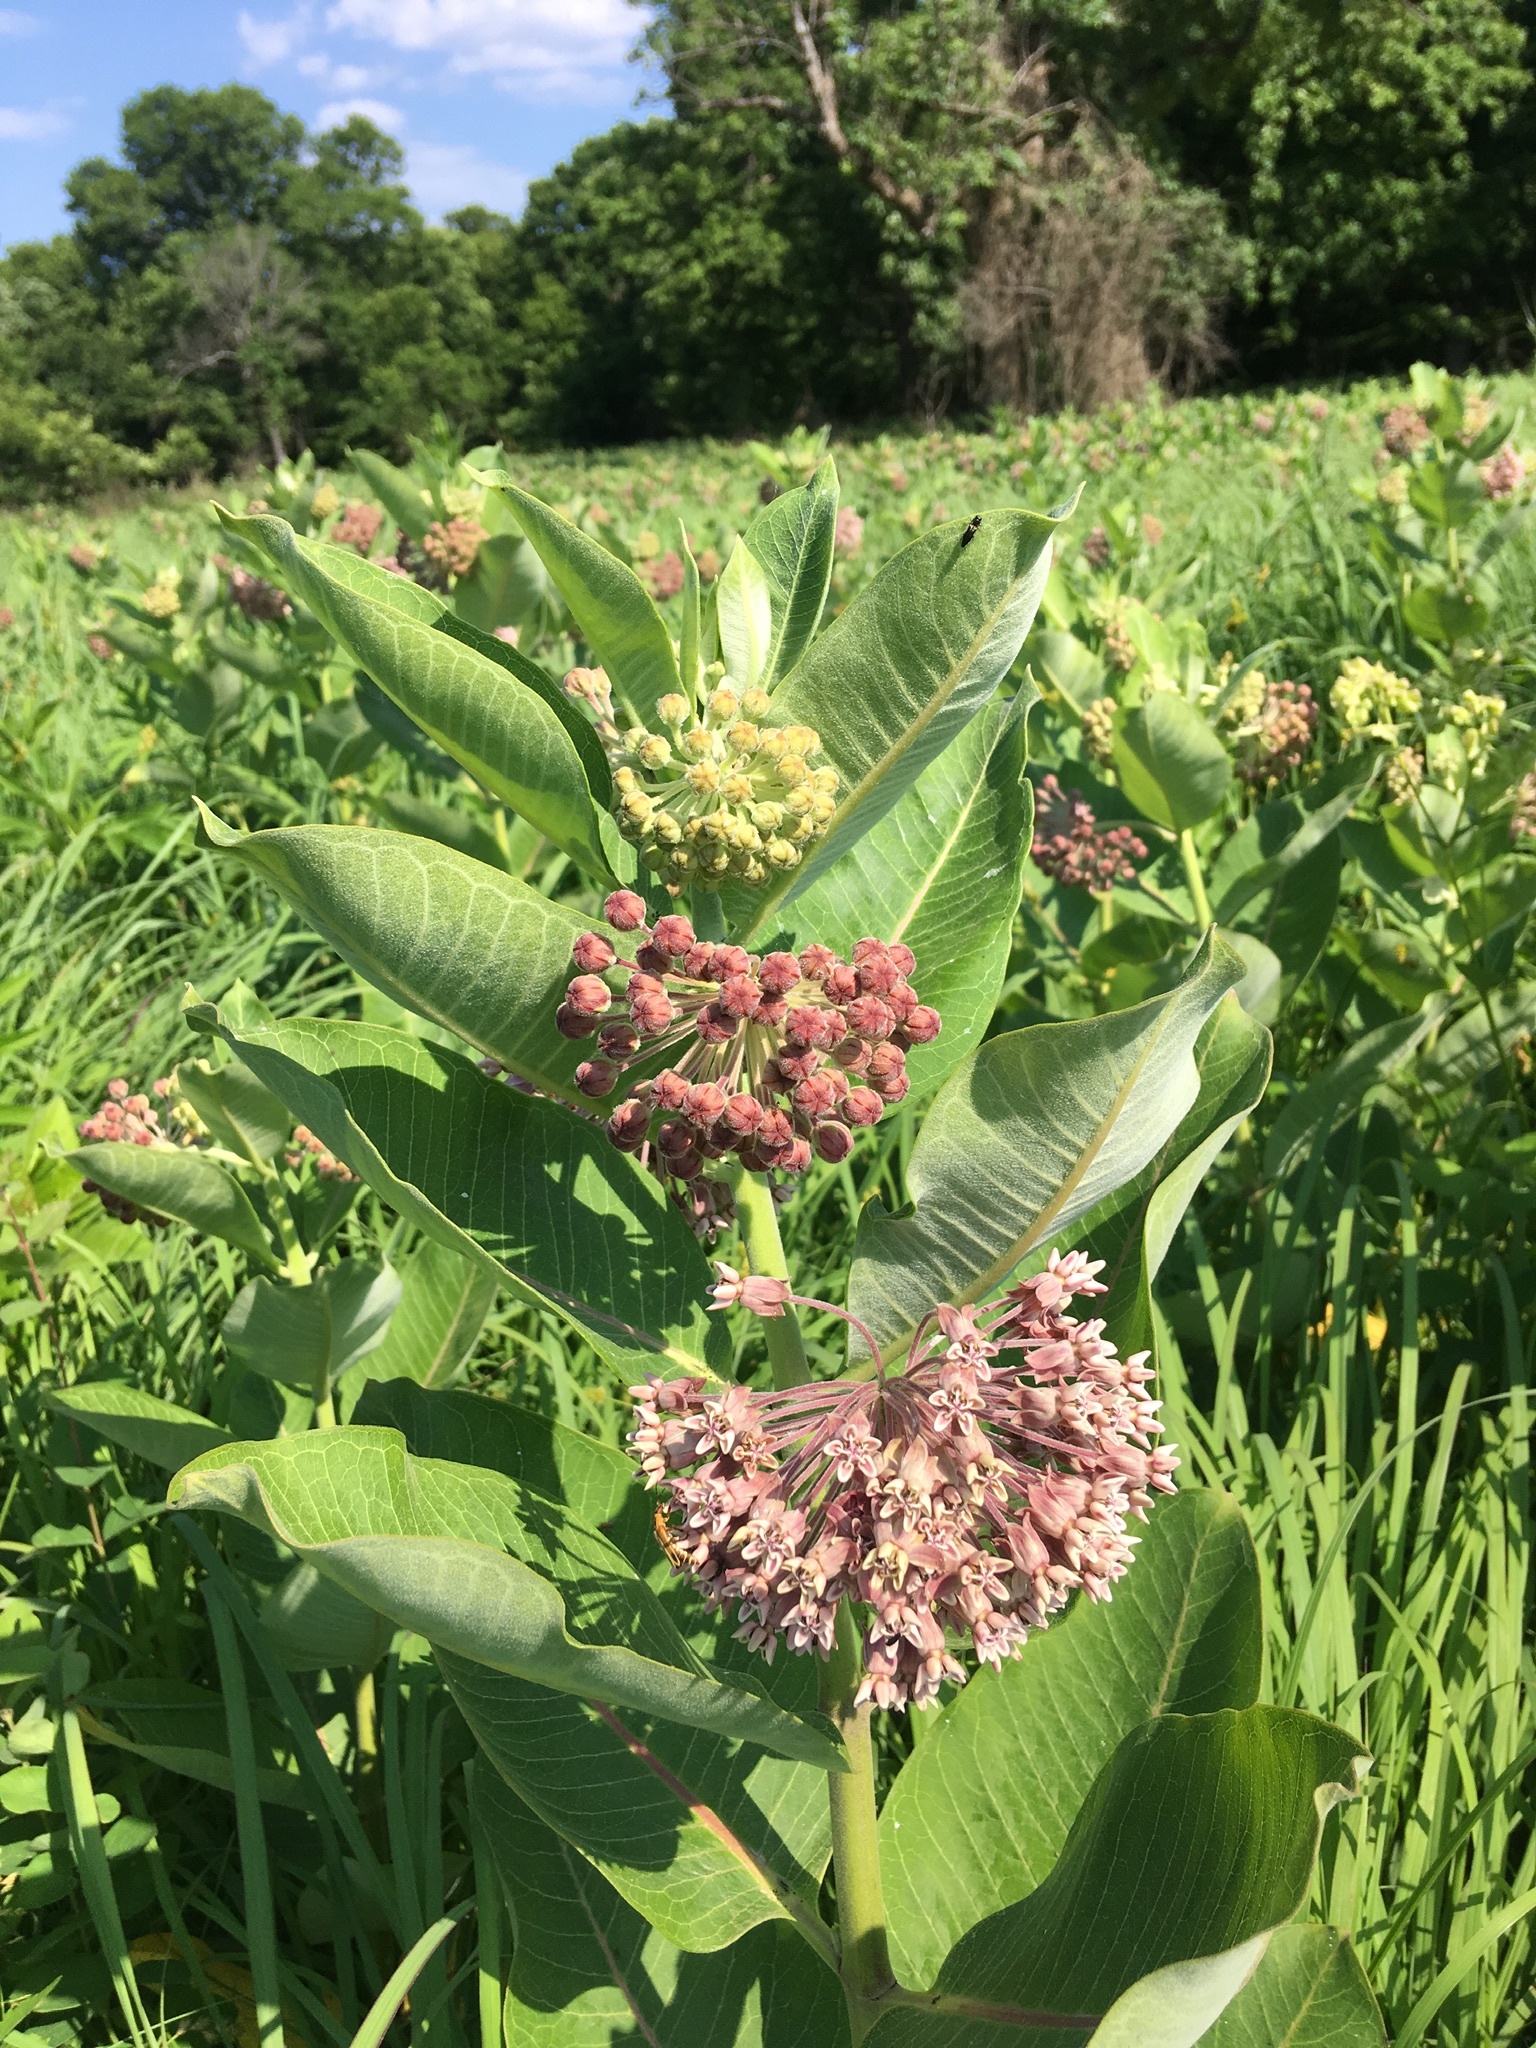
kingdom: Plantae
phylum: Tracheophyta
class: Magnoliopsida
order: Gentianales
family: Apocynaceae
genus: Asclepias
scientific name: Asclepias syriaca
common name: Common milkweed
